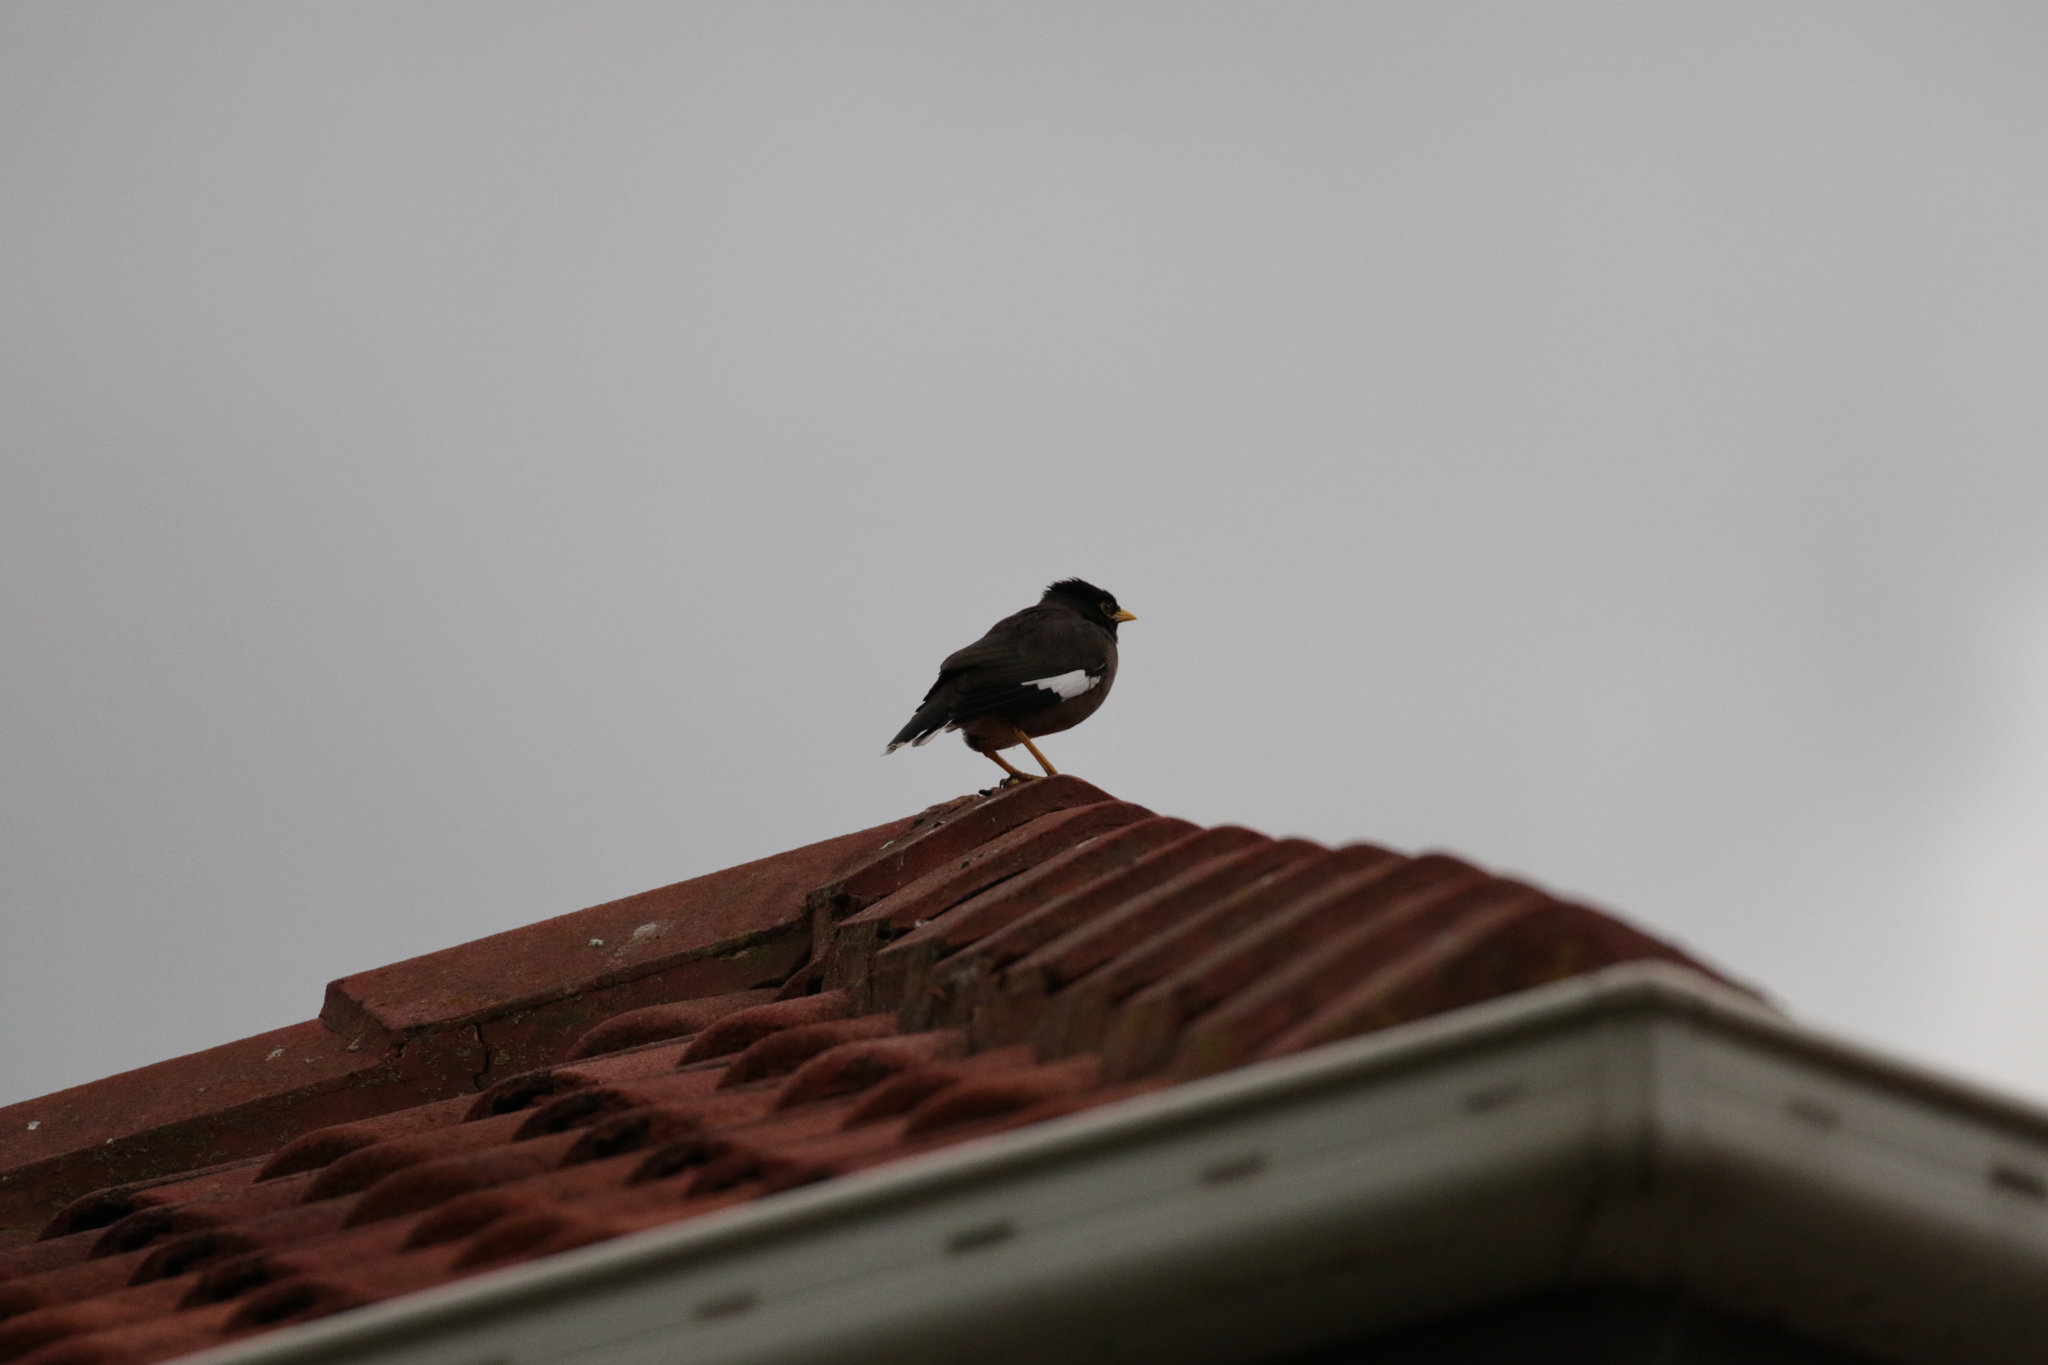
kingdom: Animalia
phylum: Chordata
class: Aves
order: Passeriformes
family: Sturnidae
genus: Acridotheres
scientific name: Acridotheres tristis
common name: Common myna
